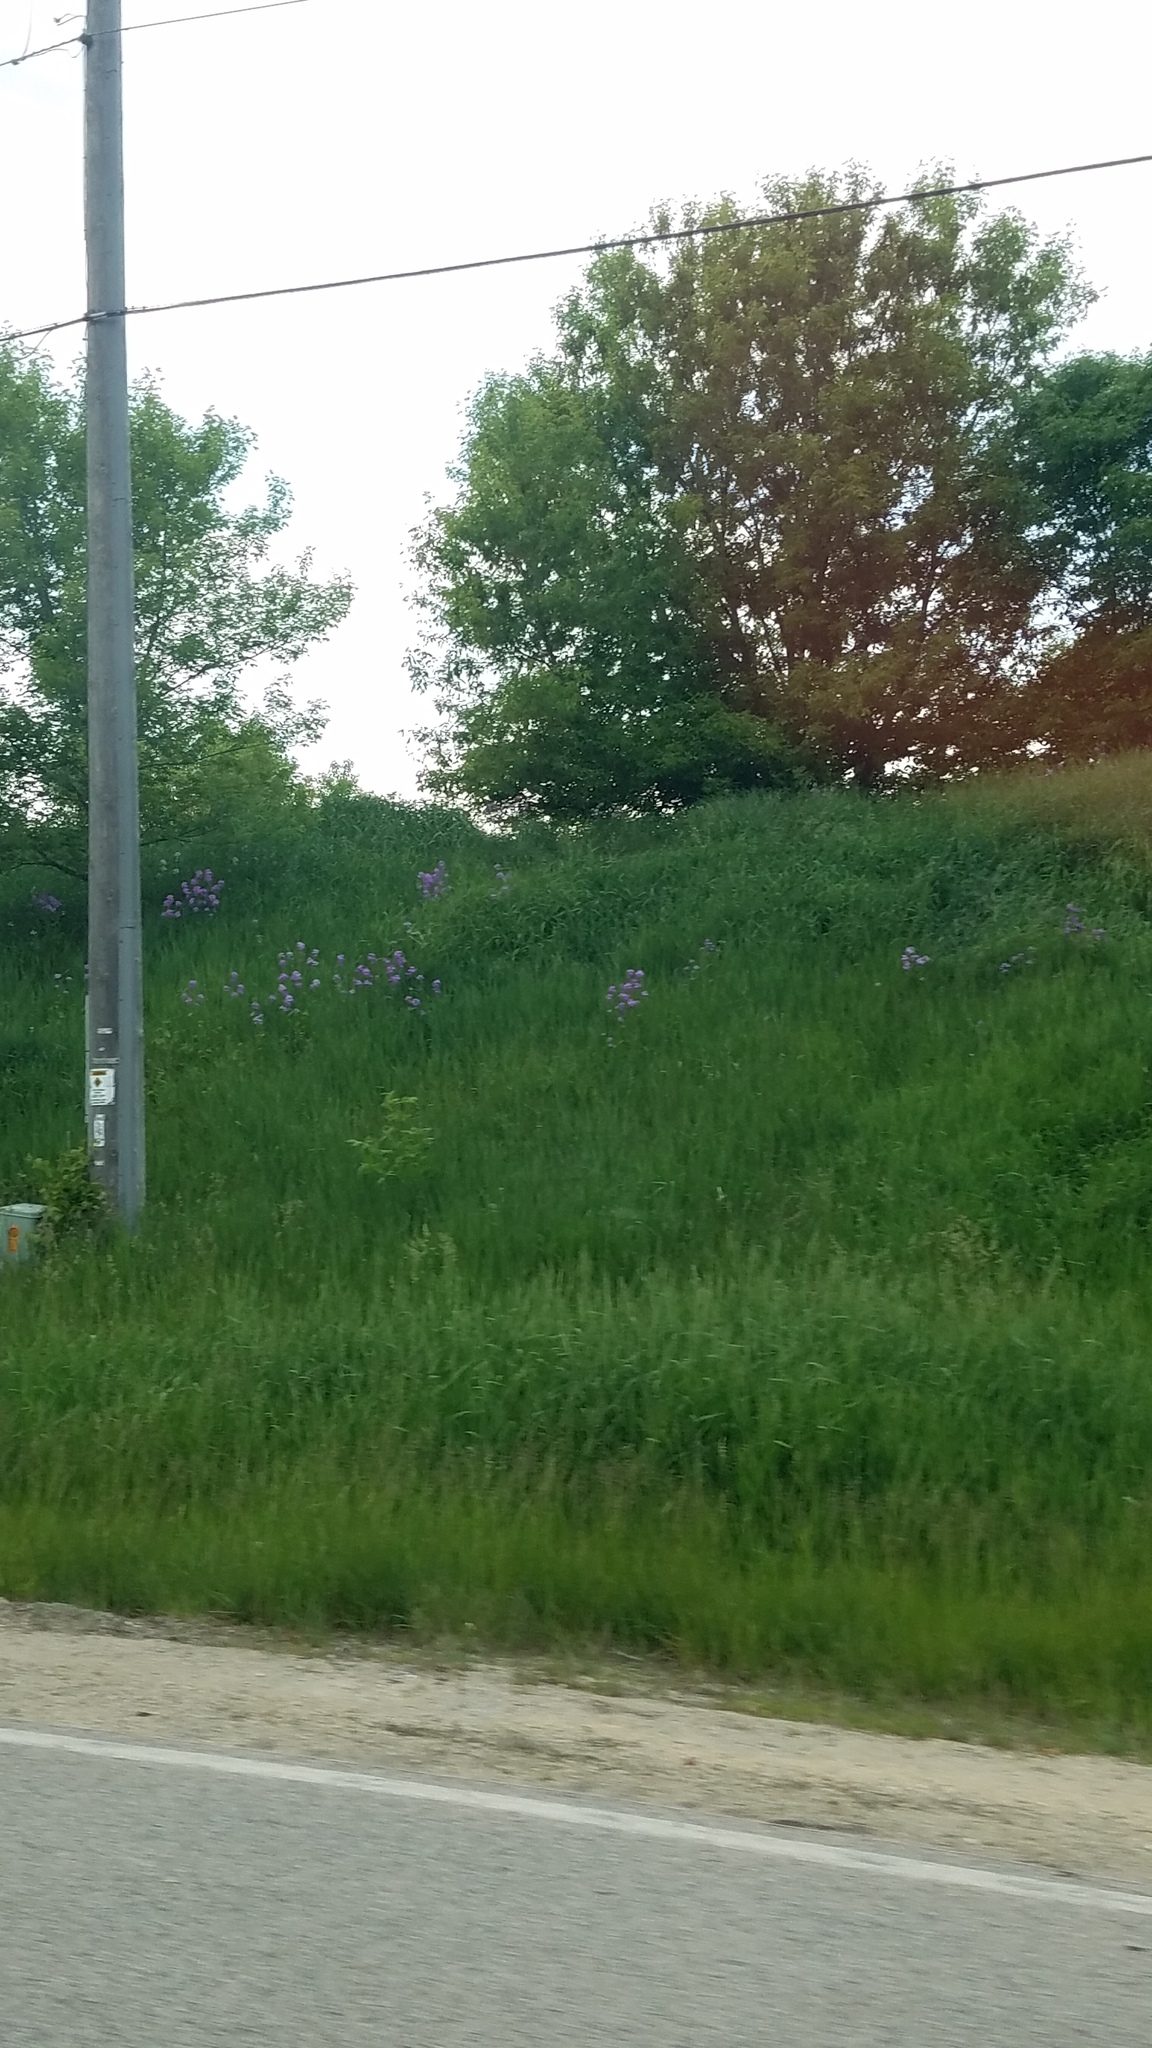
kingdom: Plantae
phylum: Tracheophyta
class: Magnoliopsida
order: Brassicales
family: Brassicaceae
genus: Hesperis
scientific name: Hesperis matronalis
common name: Dame's-violet
